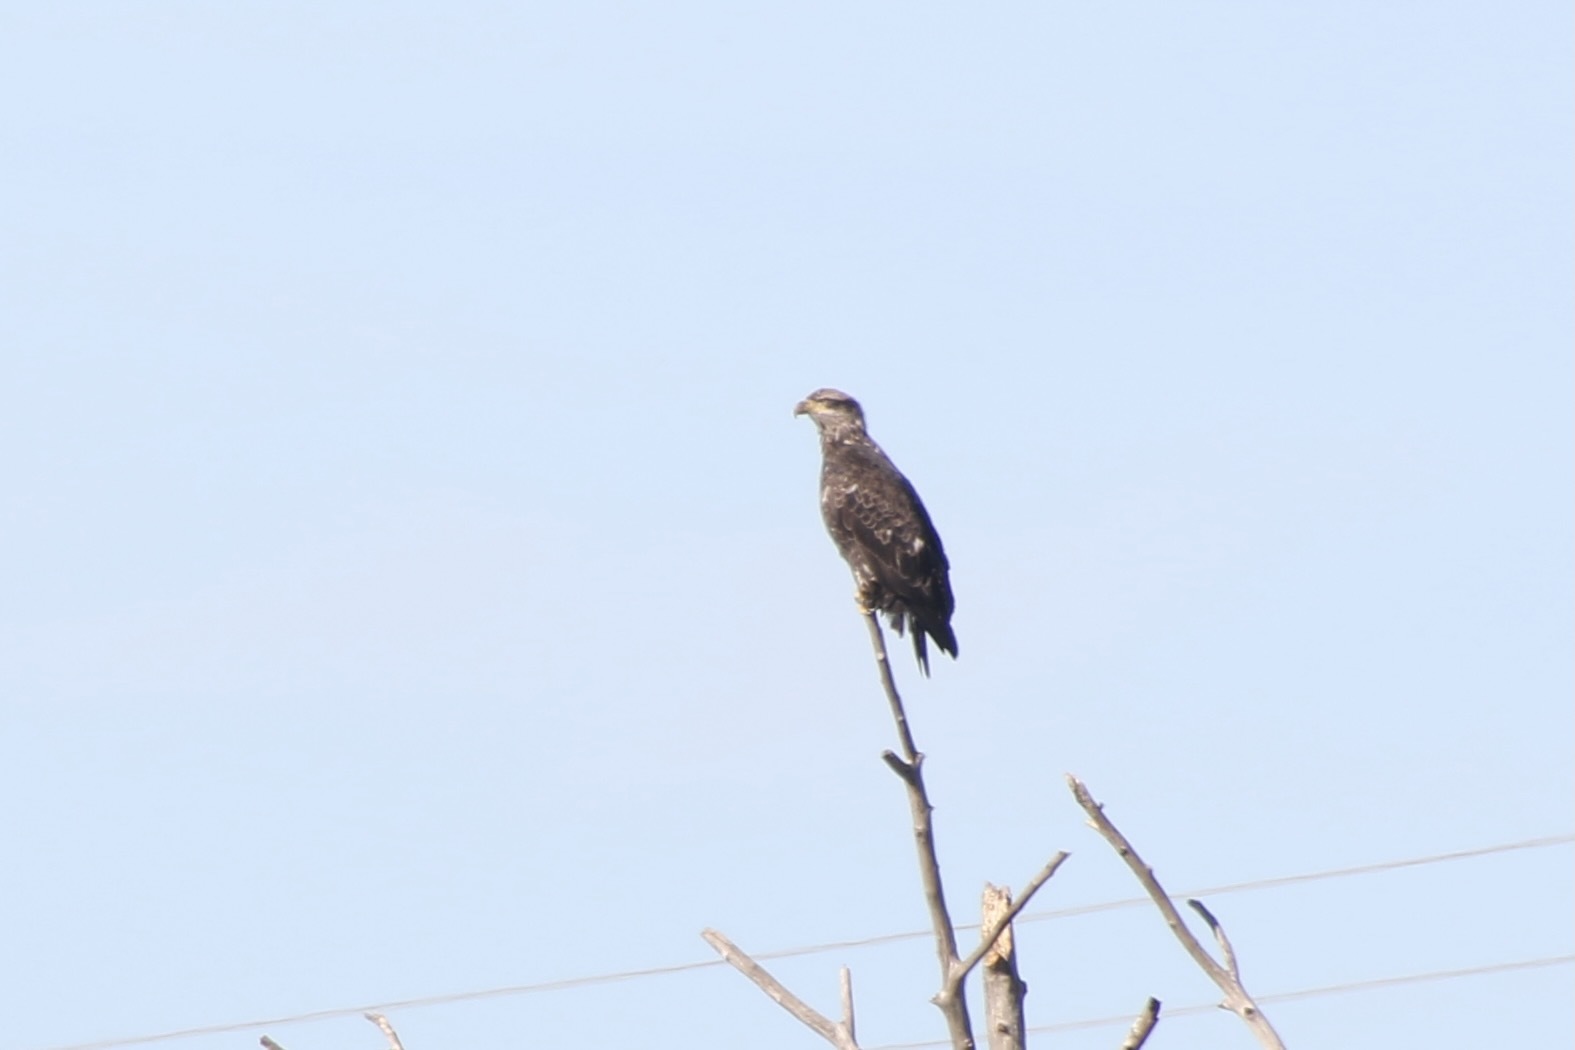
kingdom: Animalia
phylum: Chordata
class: Aves
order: Accipitriformes
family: Accipitridae
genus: Haliaeetus
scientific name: Haliaeetus leucocephalus
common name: Bald eagle
